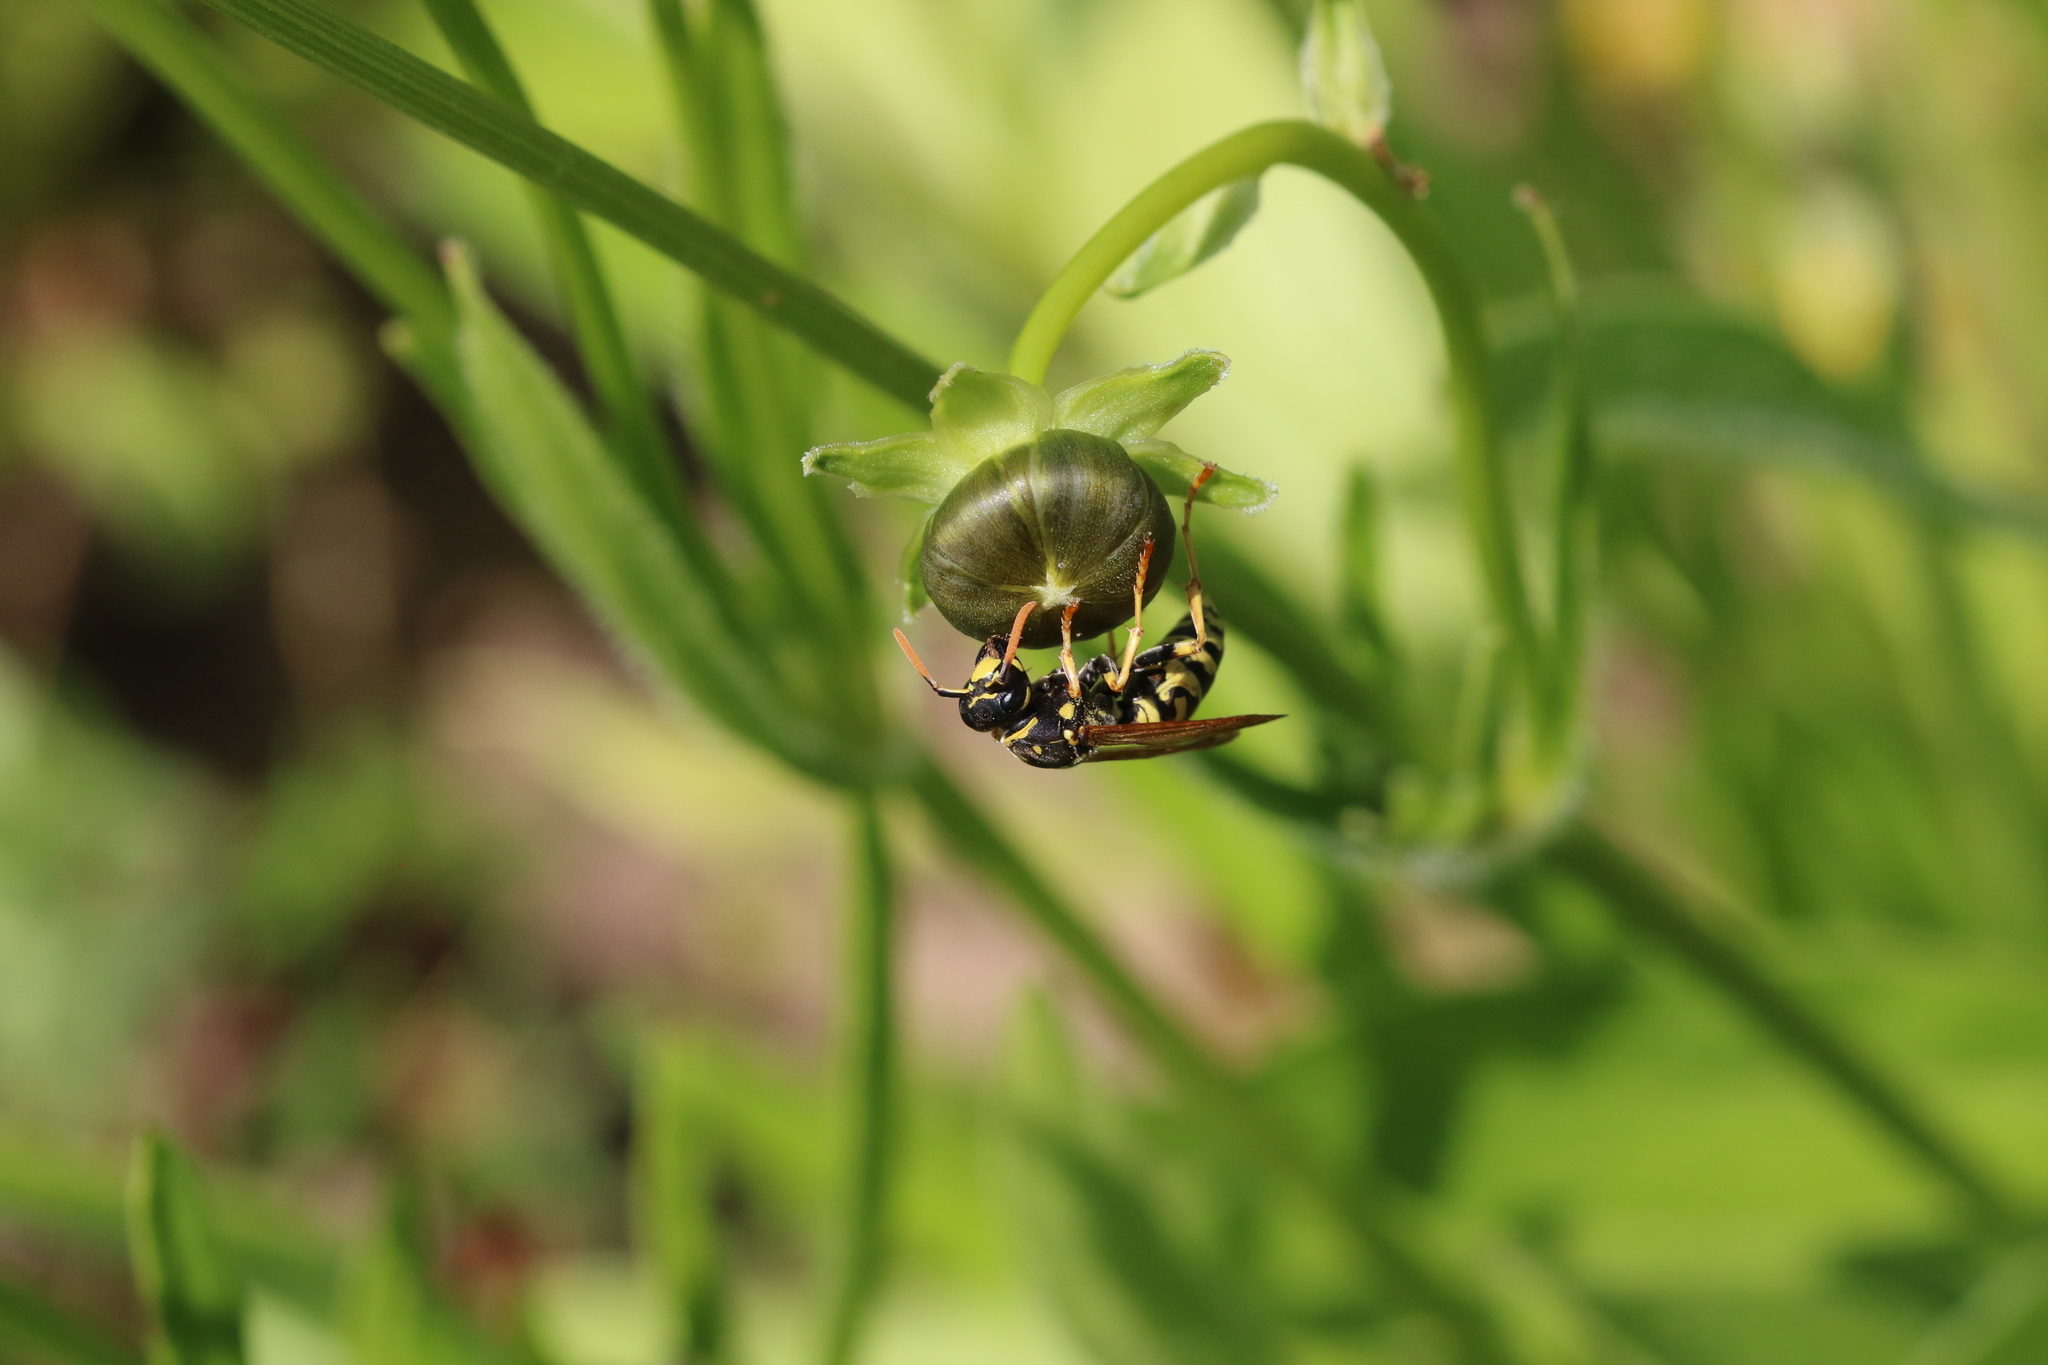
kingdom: Animalia
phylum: Arthropoda
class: Insecta
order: Hymenoptera
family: Eumenidae
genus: Polistes
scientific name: Polistes dominula
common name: Paper wasp
